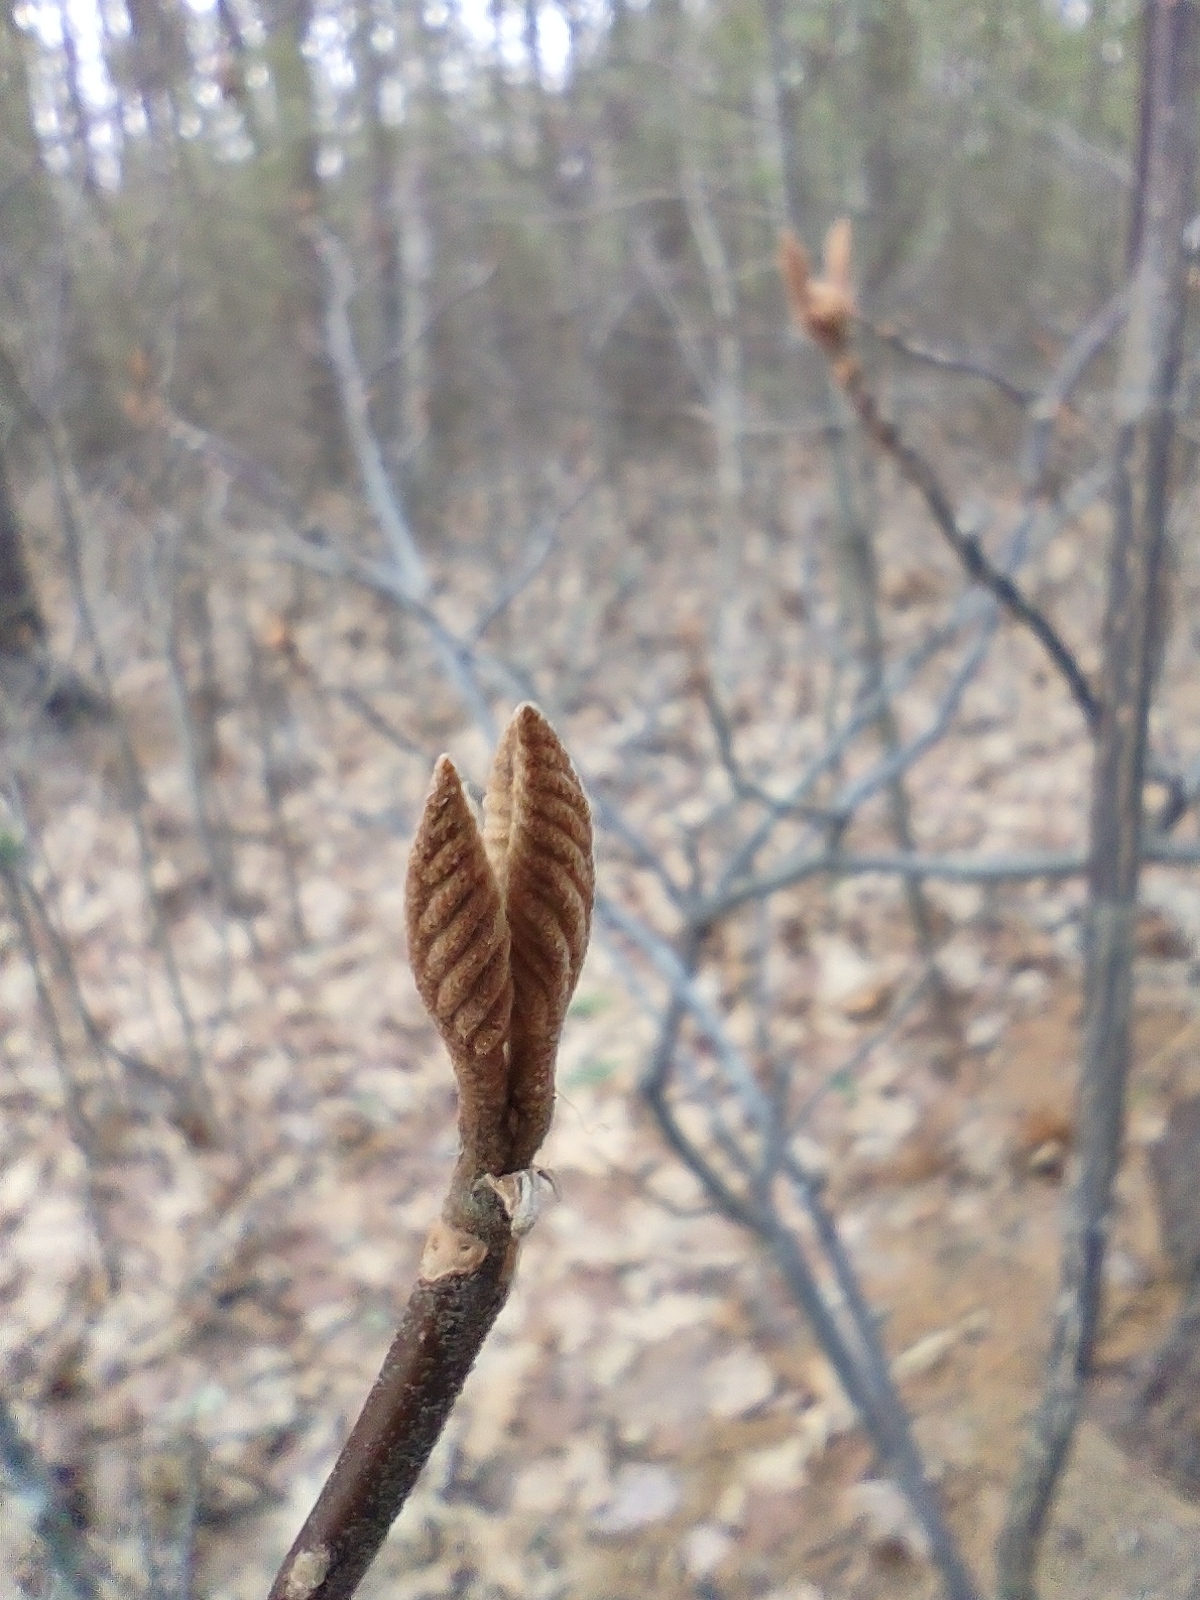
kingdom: Plantae
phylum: Tracheophyta
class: Magnoliopsida
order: Dipsacales
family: Viburnaceae
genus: Viburnum
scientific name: Viburnum lantanoides
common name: Hobblebush
